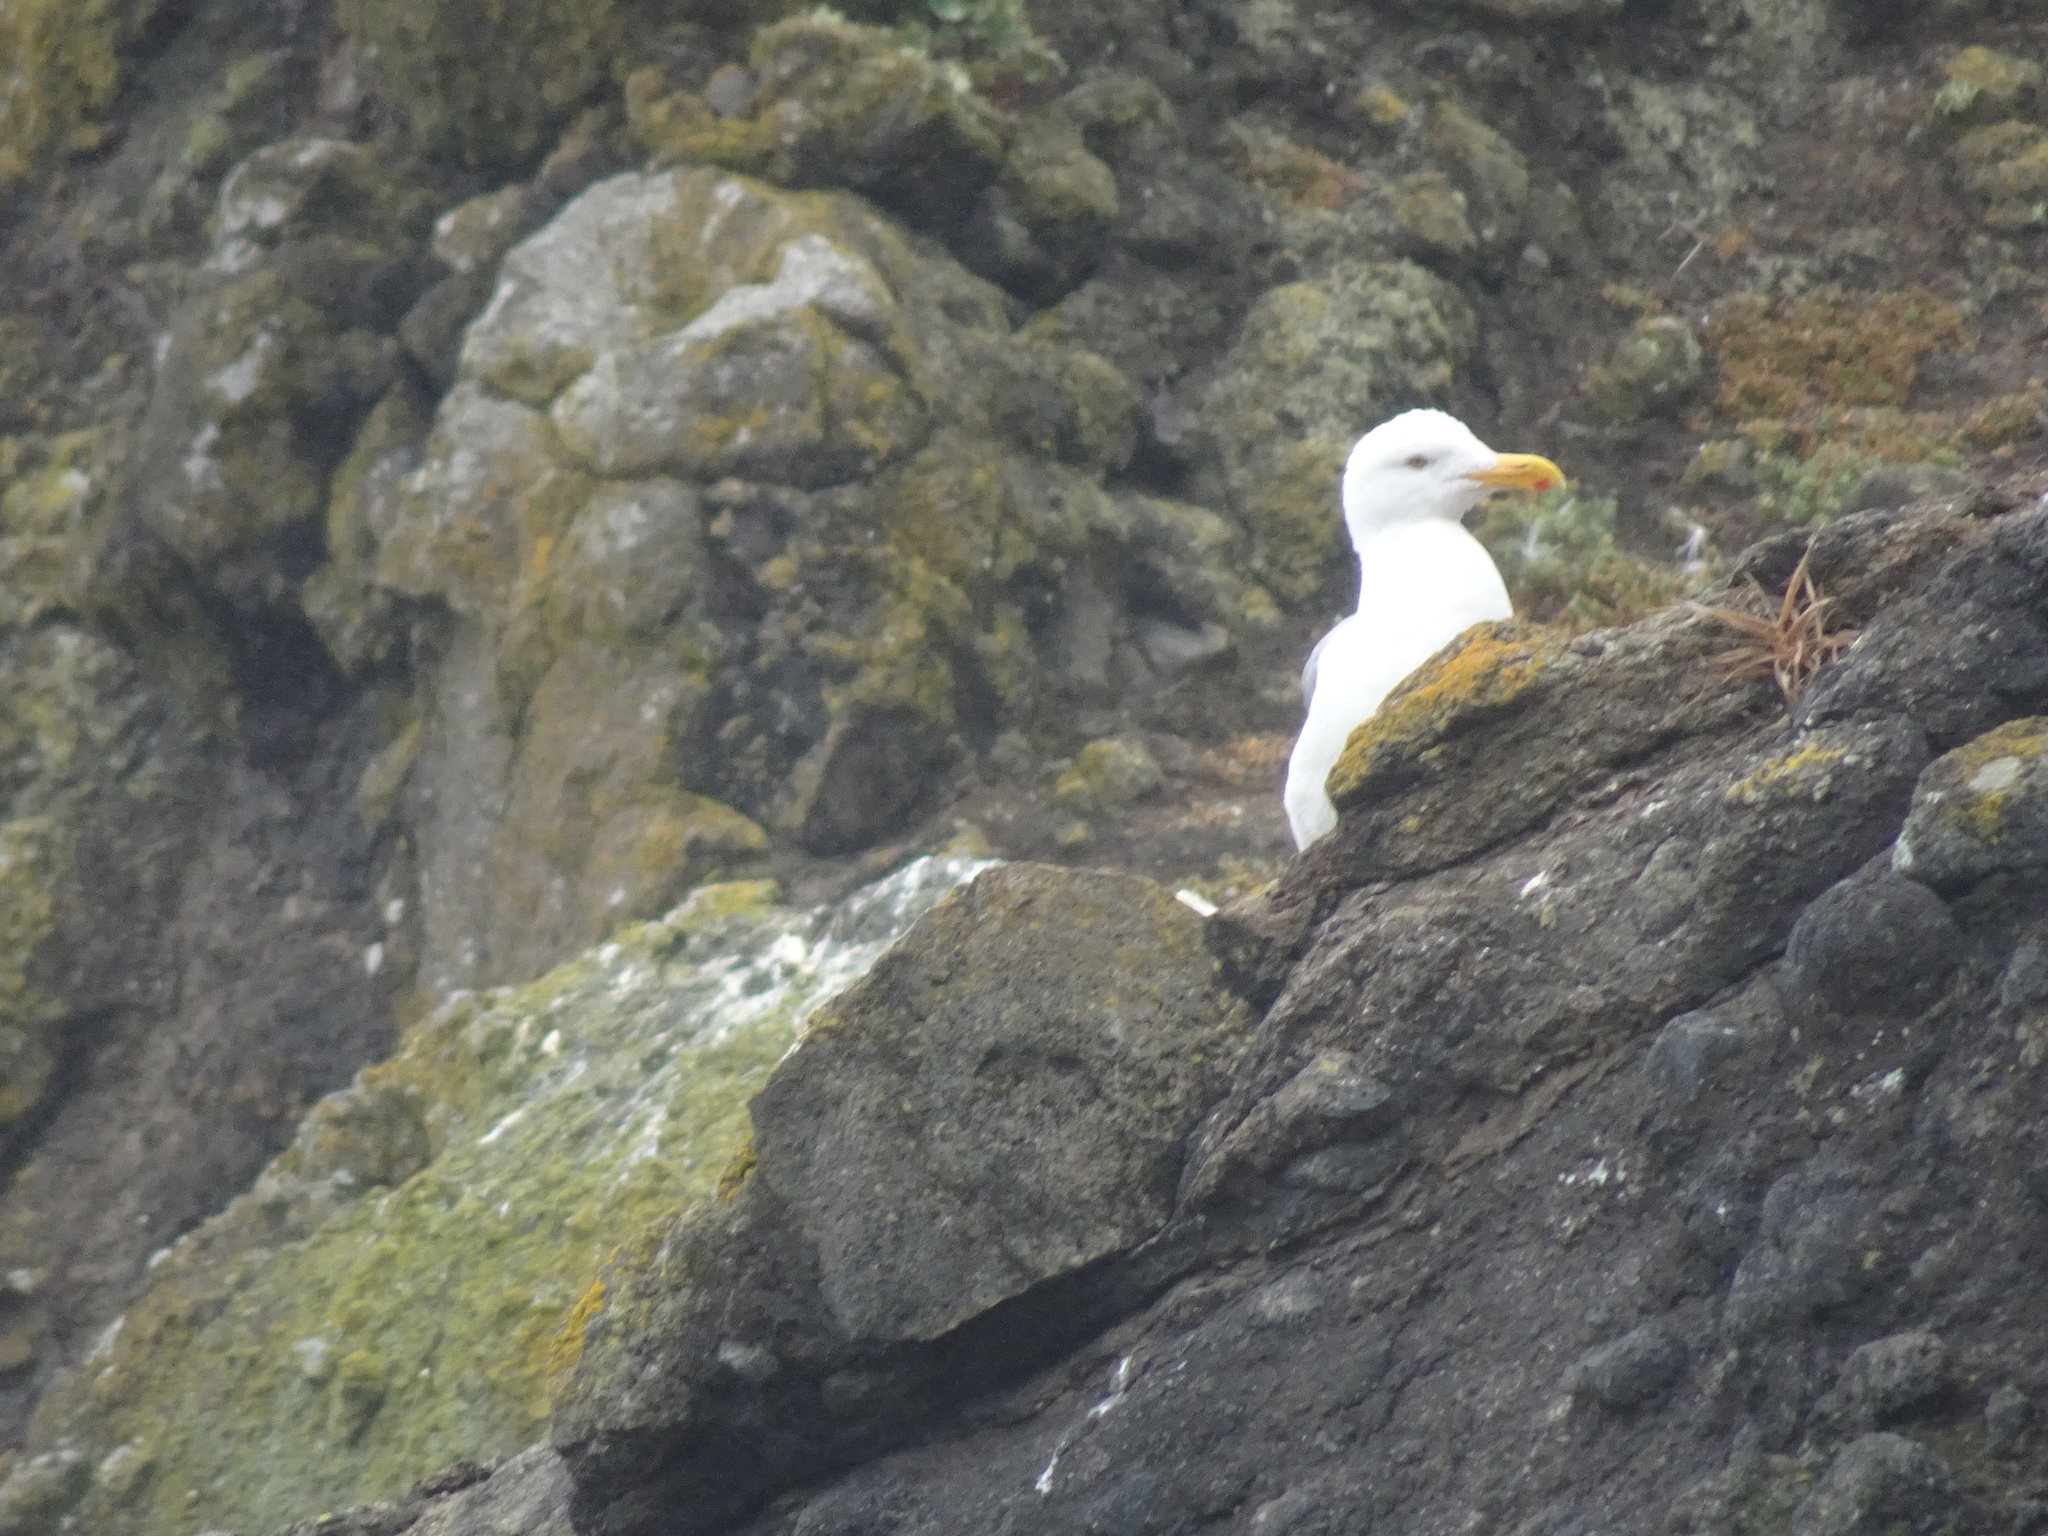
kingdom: Animalia
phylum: Chordata
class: Aves
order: Charadriiformes
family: Laridae
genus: Larus
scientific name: Larus
